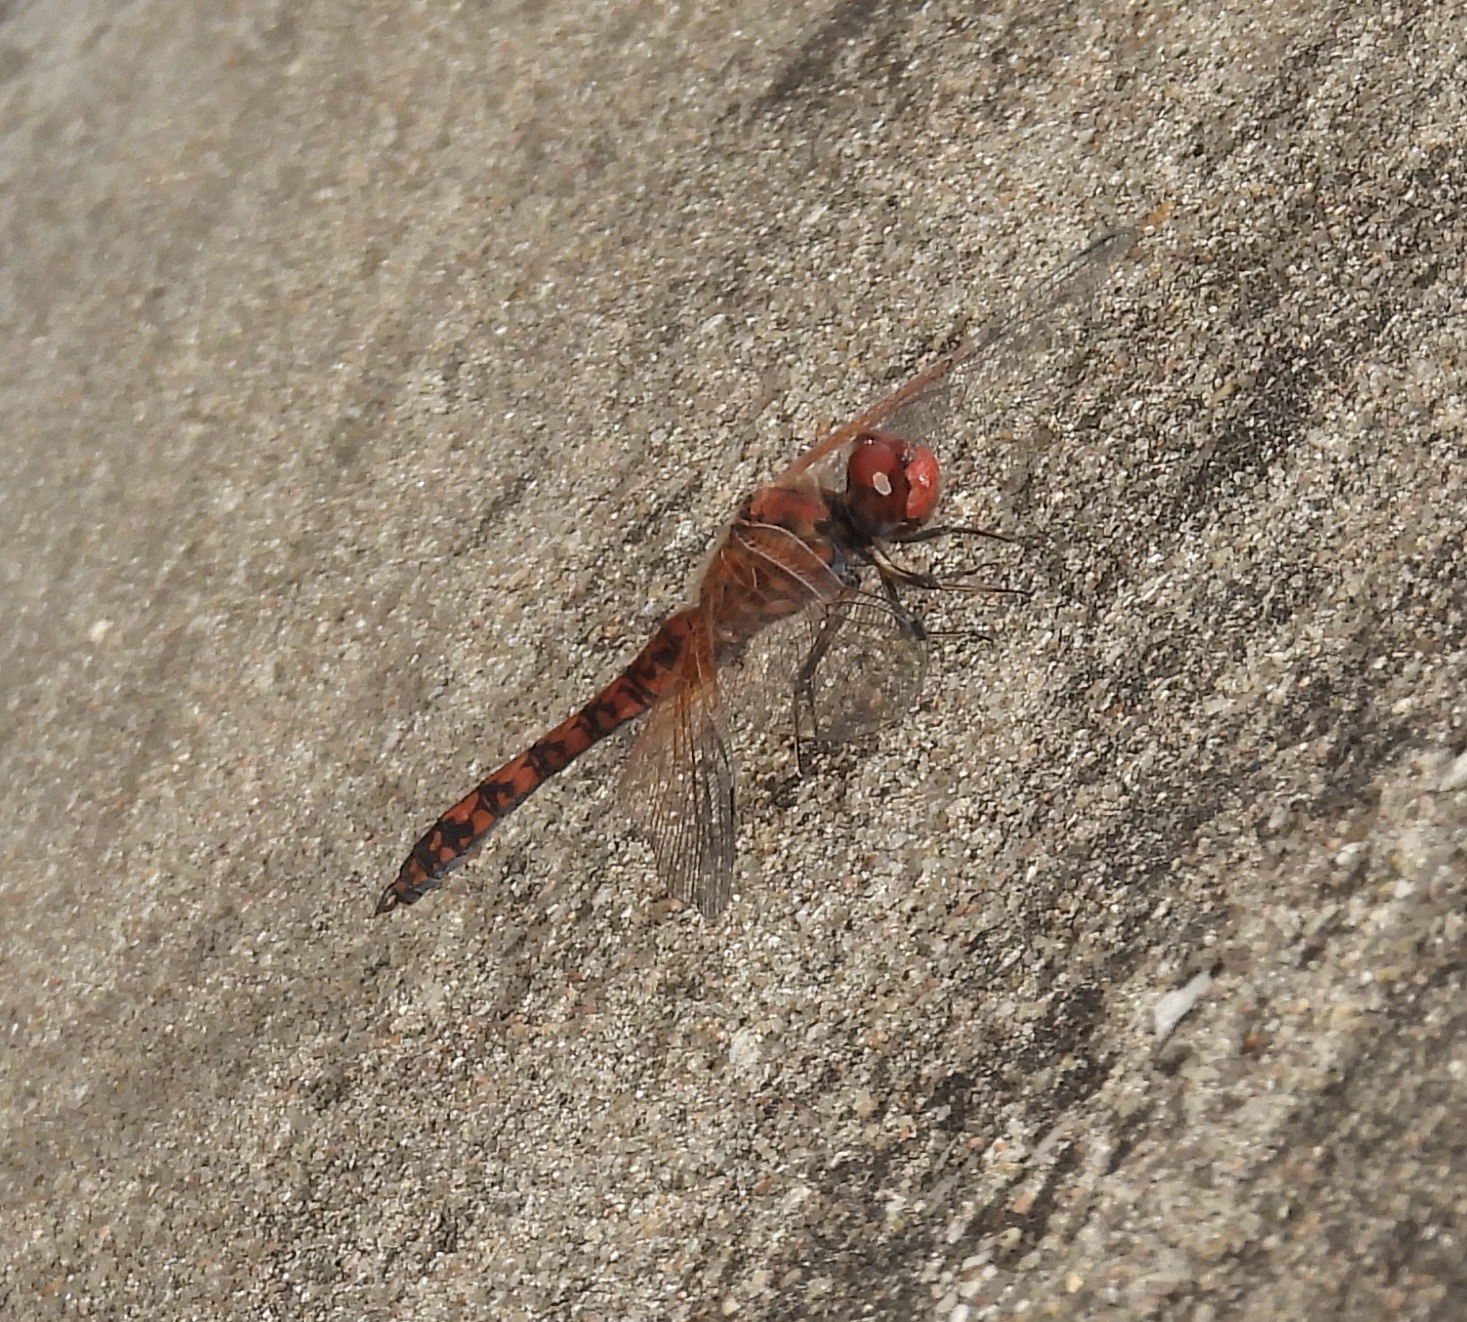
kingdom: Animalia
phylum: Arthropoda
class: Insecta
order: Odonata
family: Libellulidae
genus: Paltothemis
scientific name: Paltothemis lineatipes
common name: Red rock skimmer
